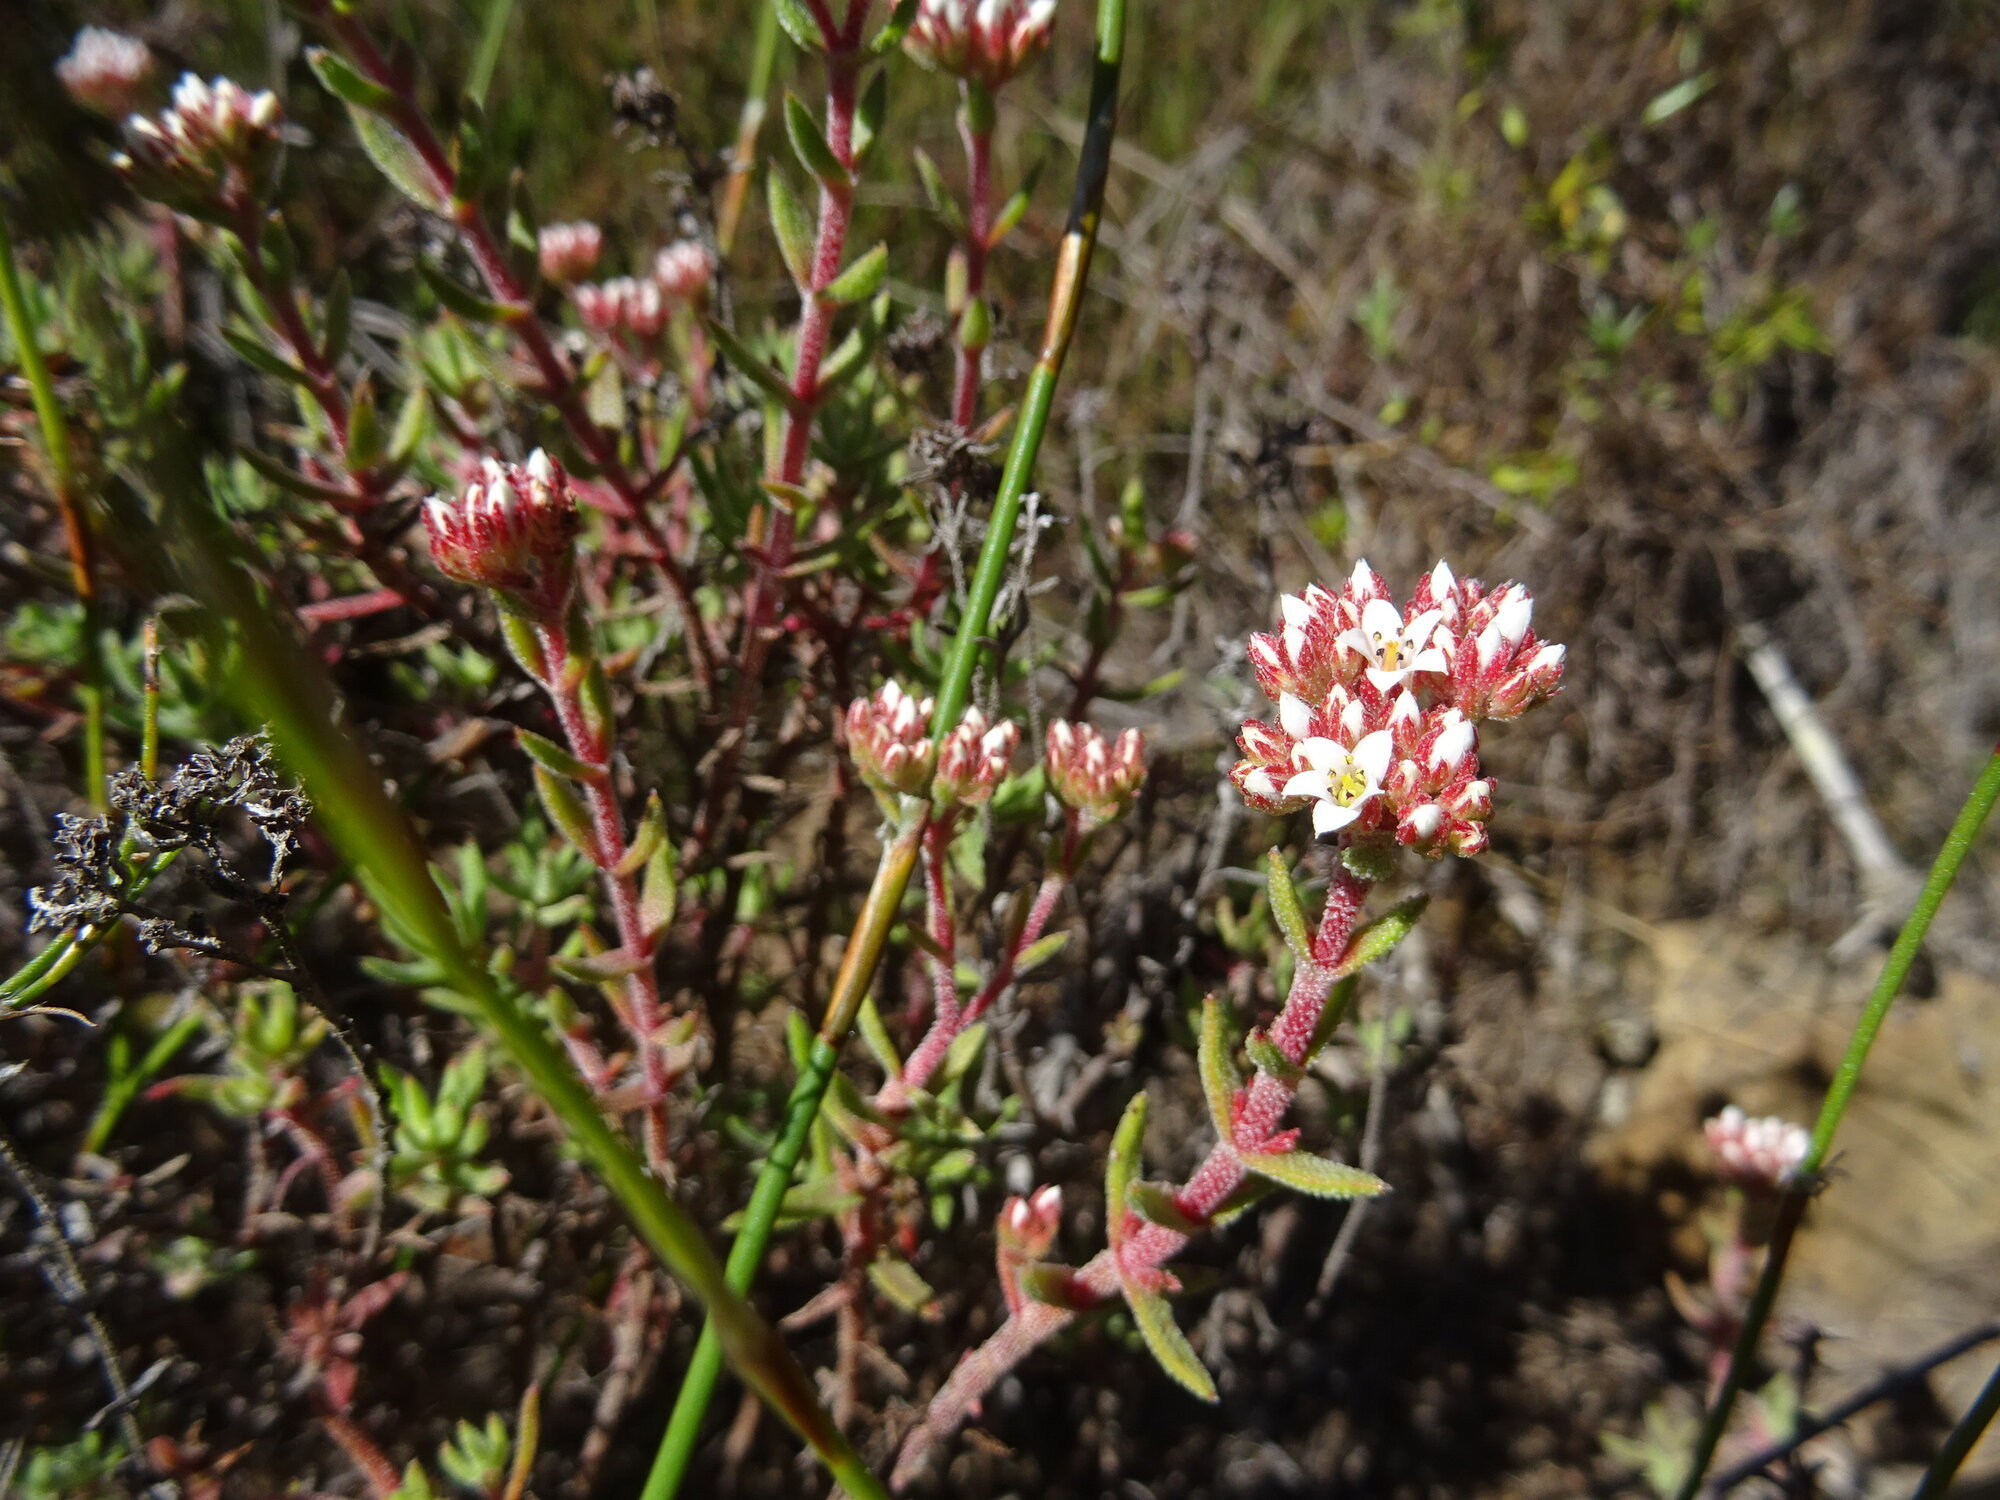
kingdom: Plantae
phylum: Tracheophyta
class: Magnoliopsida
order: Saxifragales
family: Crassulaceae
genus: Crassula
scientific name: Crassula pruinosa
